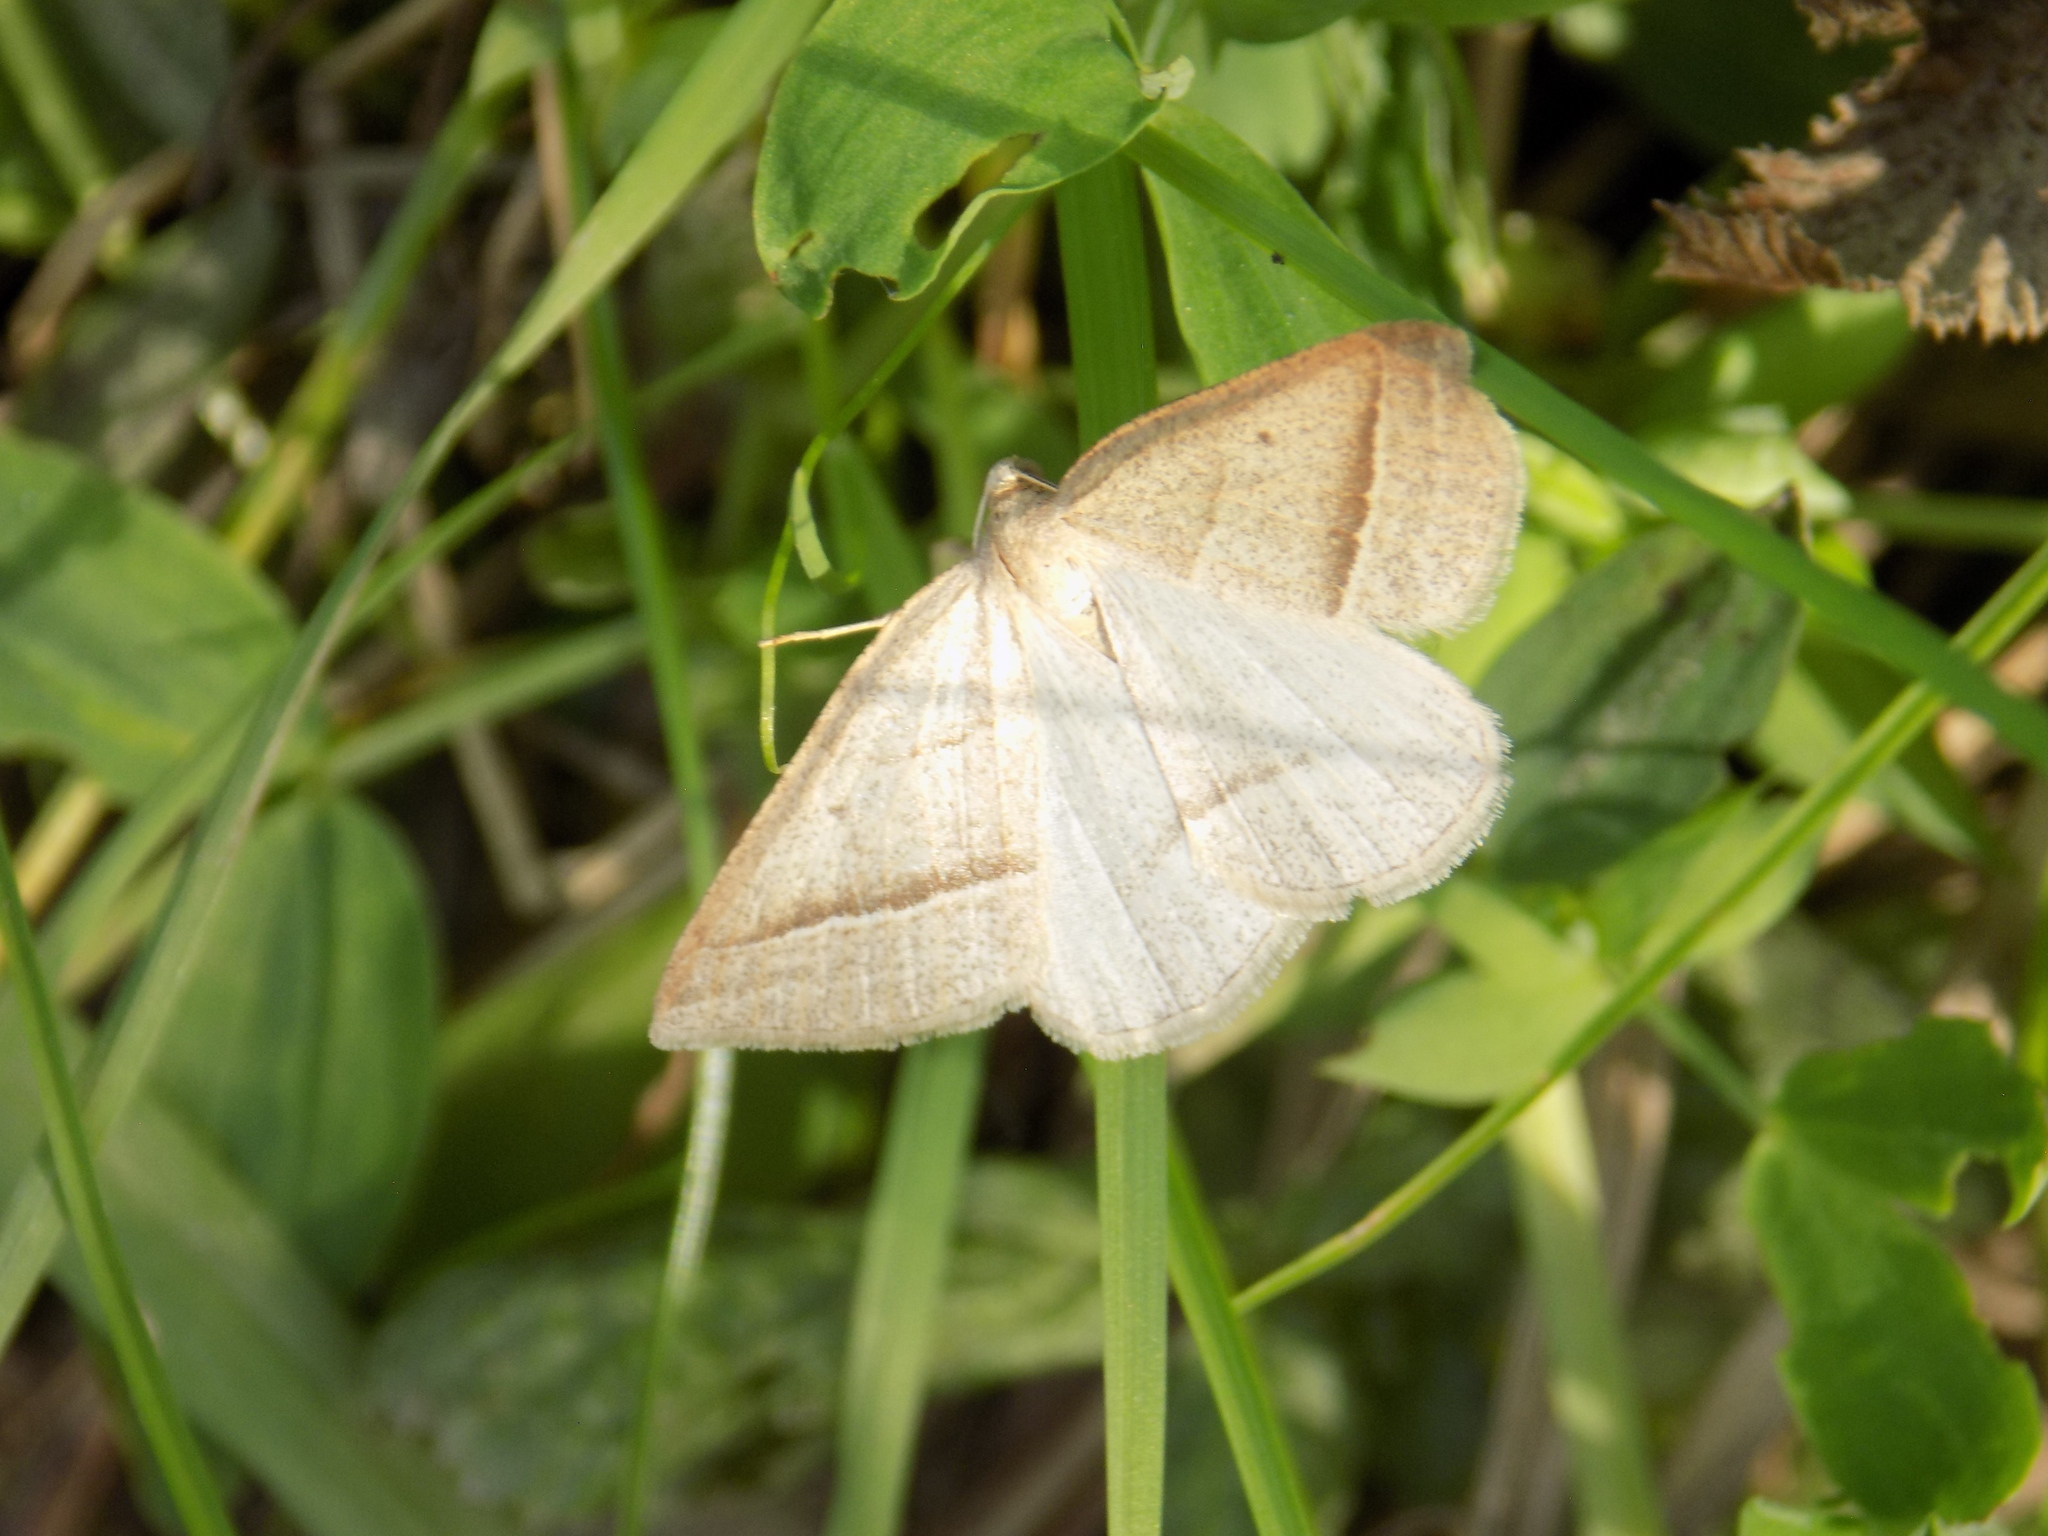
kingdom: Animalia
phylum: Arthropoda
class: Insecta
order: Lepidoptera
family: Pterophoridae
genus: Pterophorus
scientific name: Pterophorus Petrophora chlorosata
